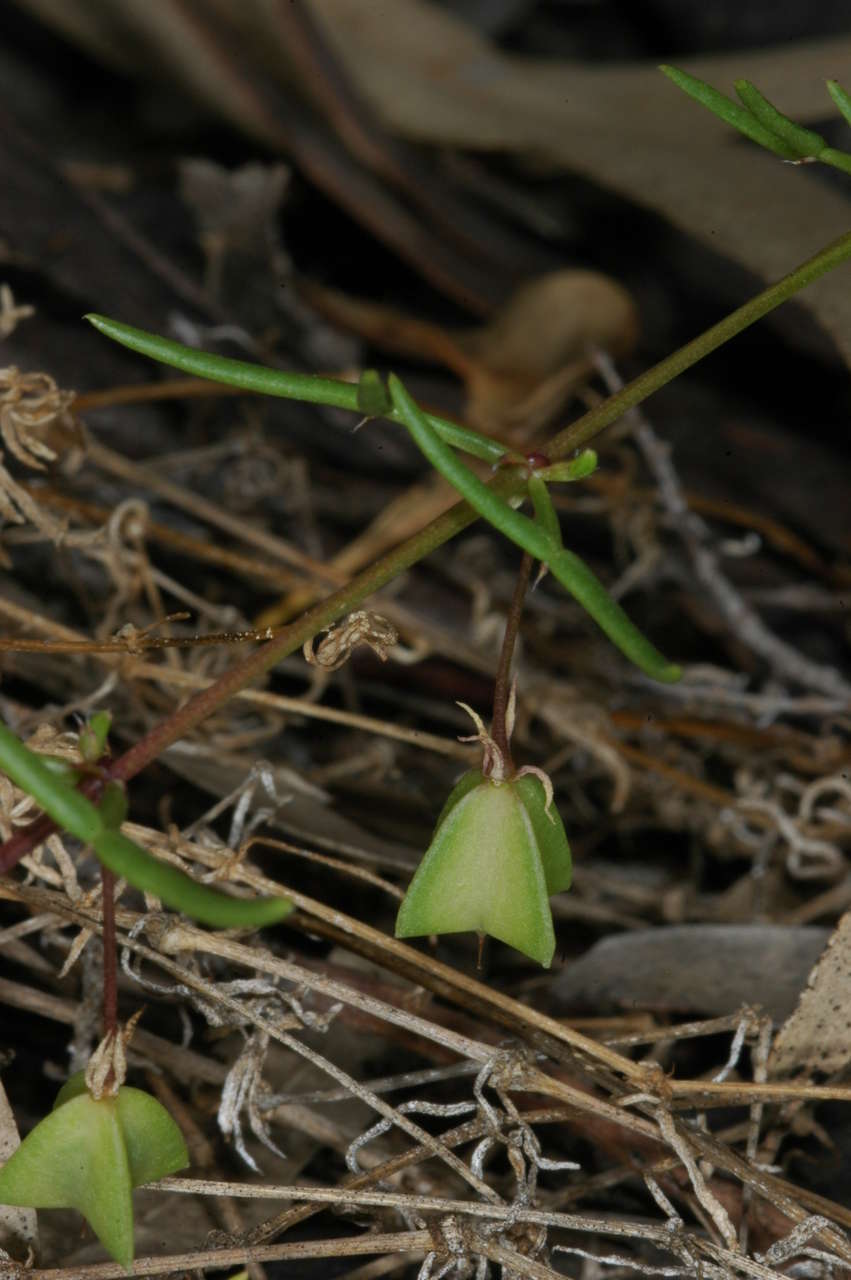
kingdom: Plantae
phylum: Tracheophyta
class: Magnoliopsida
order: Zygophyllales
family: Zygophyllaceae
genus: Roepera
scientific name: Roepera angustifolia
